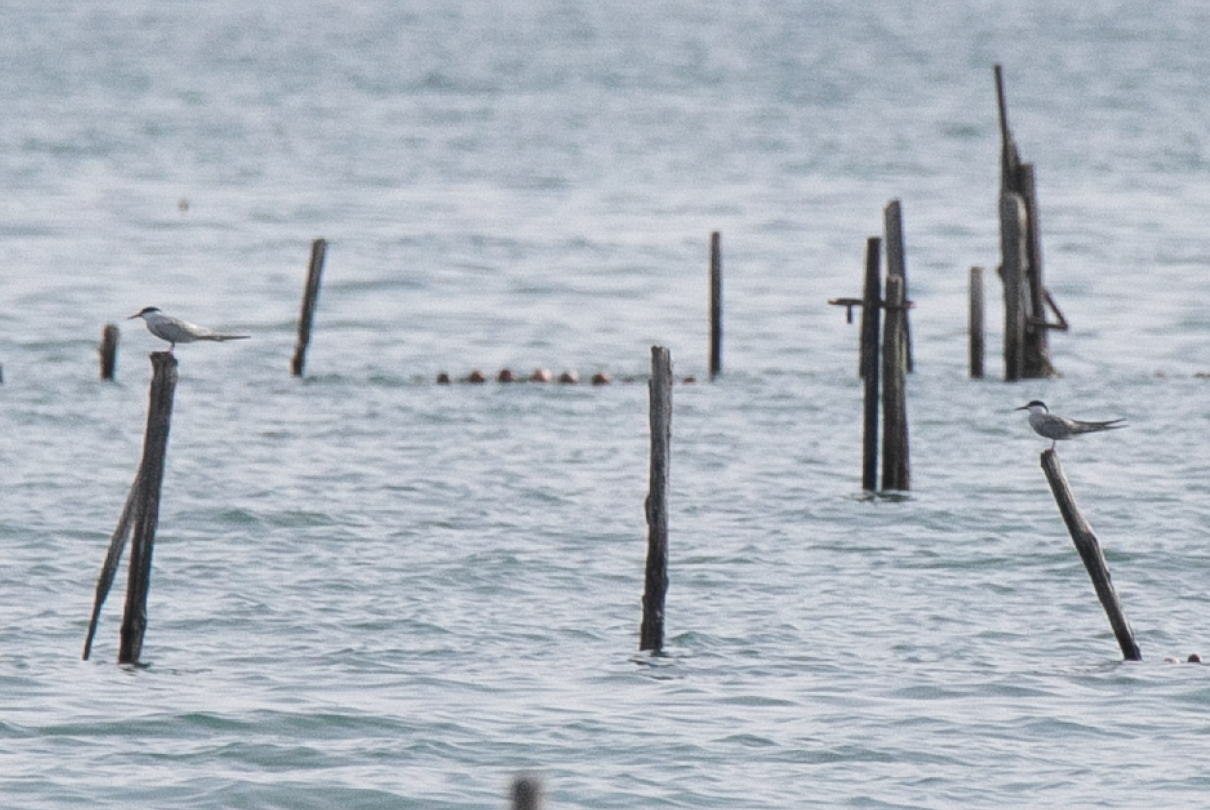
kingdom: Animalia
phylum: Chordata
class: Aves
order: Charadriiformes
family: Laridae
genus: Sterna
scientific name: Sterna hirundo
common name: Common tern
